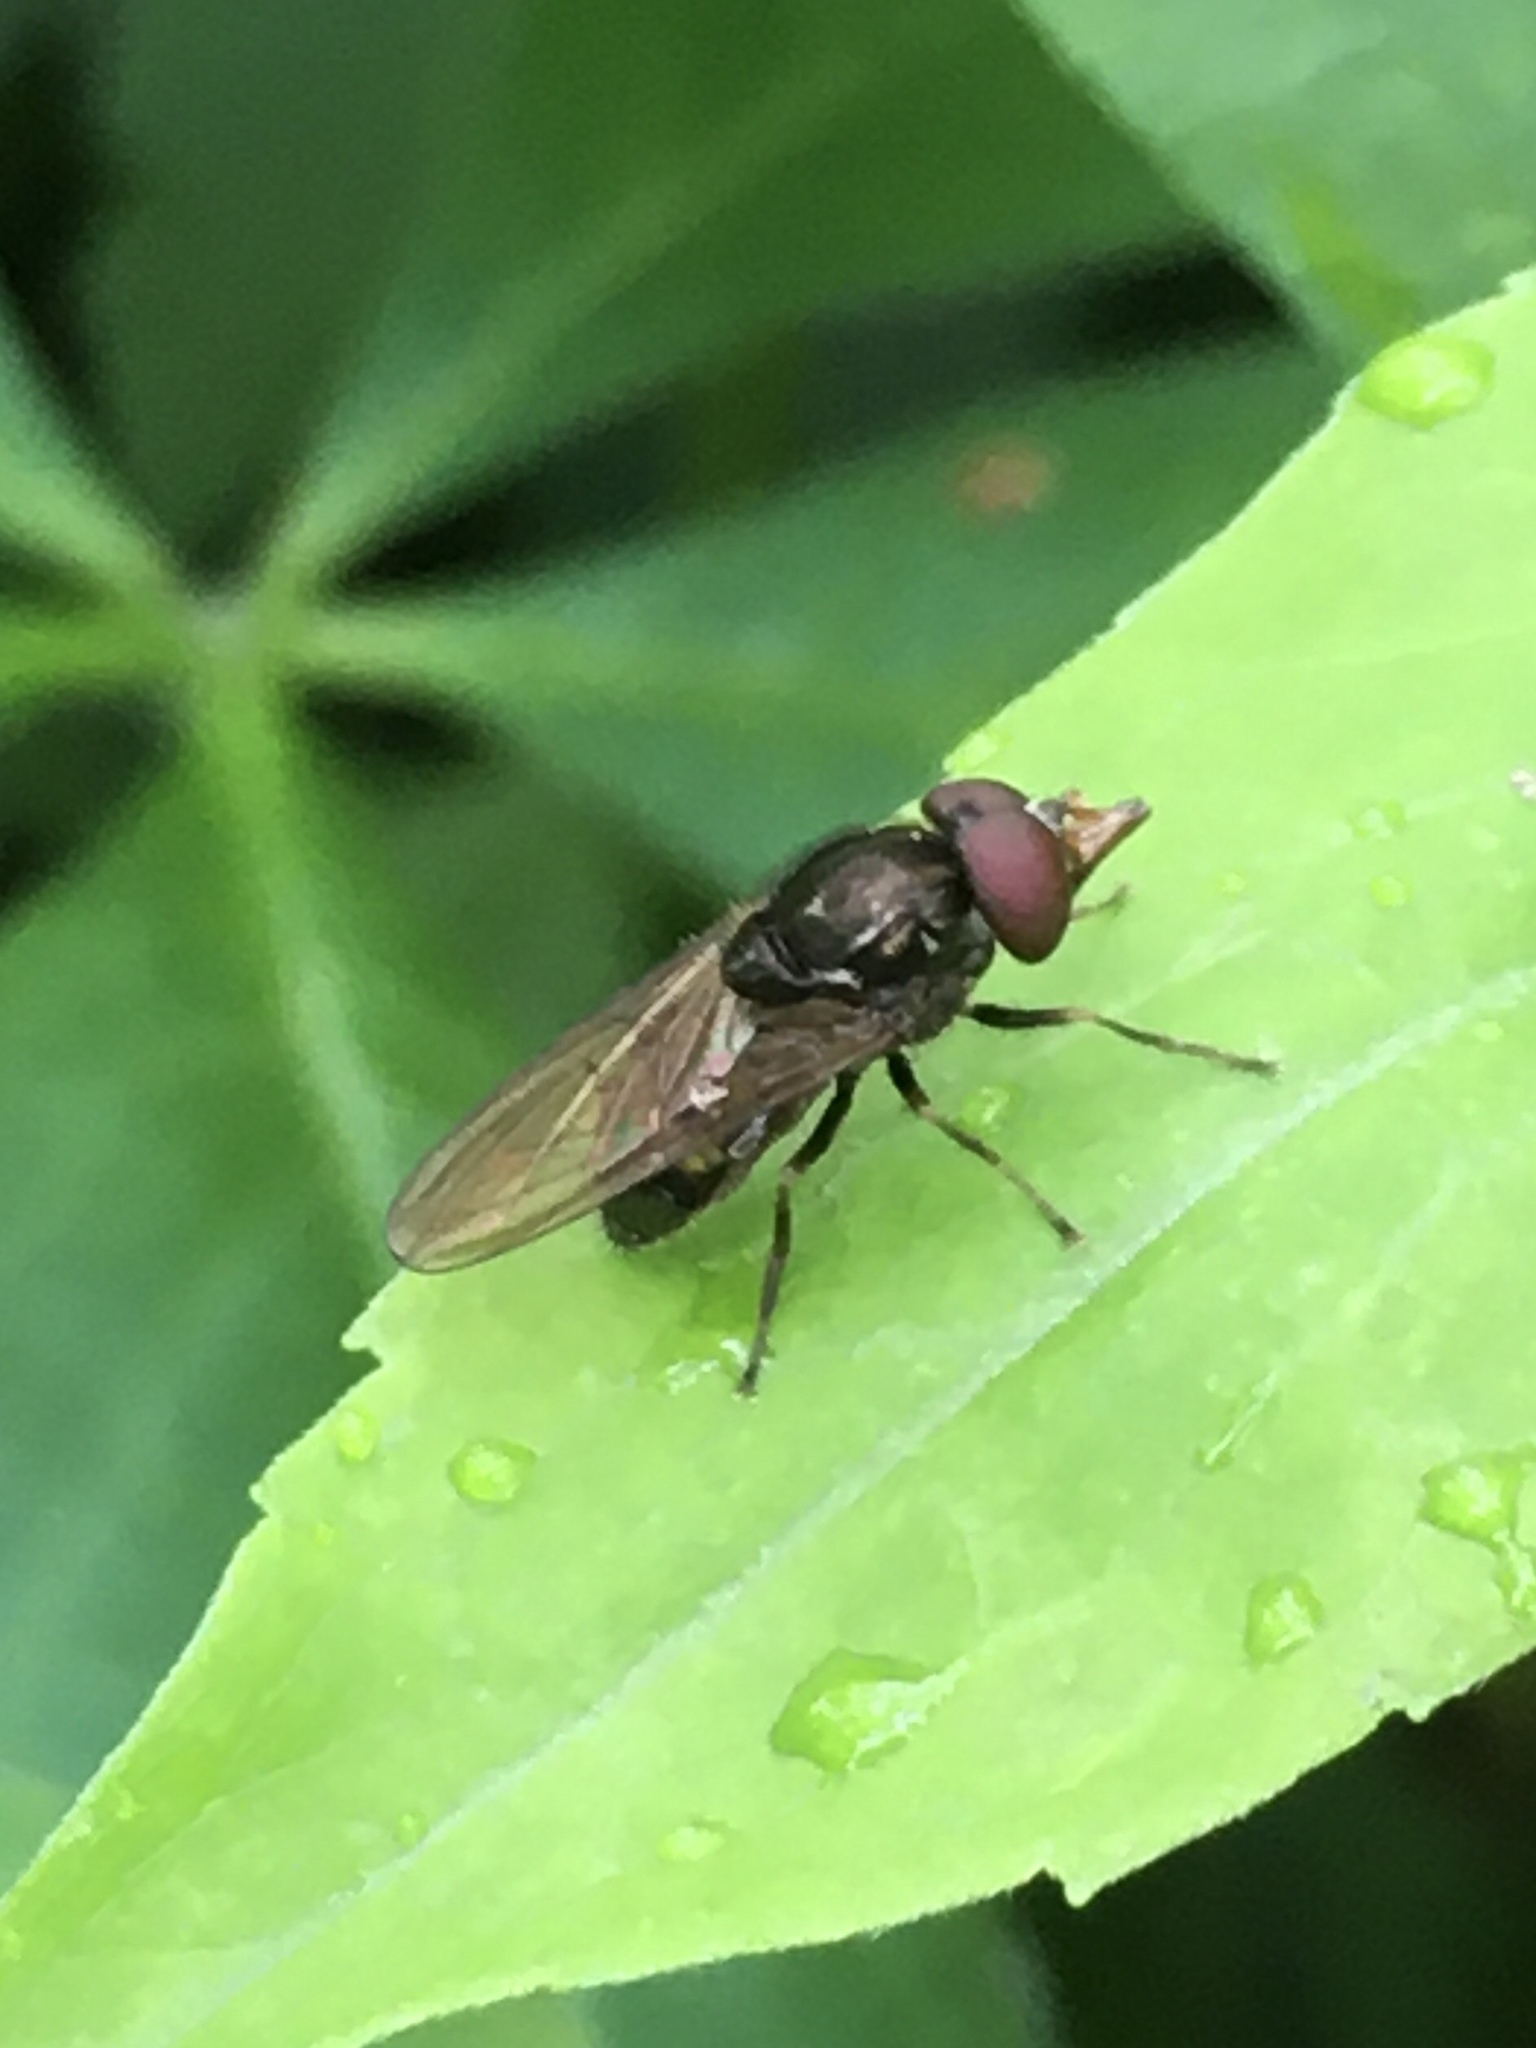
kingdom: Animalia
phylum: Arthropoda
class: Insecta
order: Diptera
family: Syrphidae
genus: Rhingia
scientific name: Rhingia nasica
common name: American snout fly
